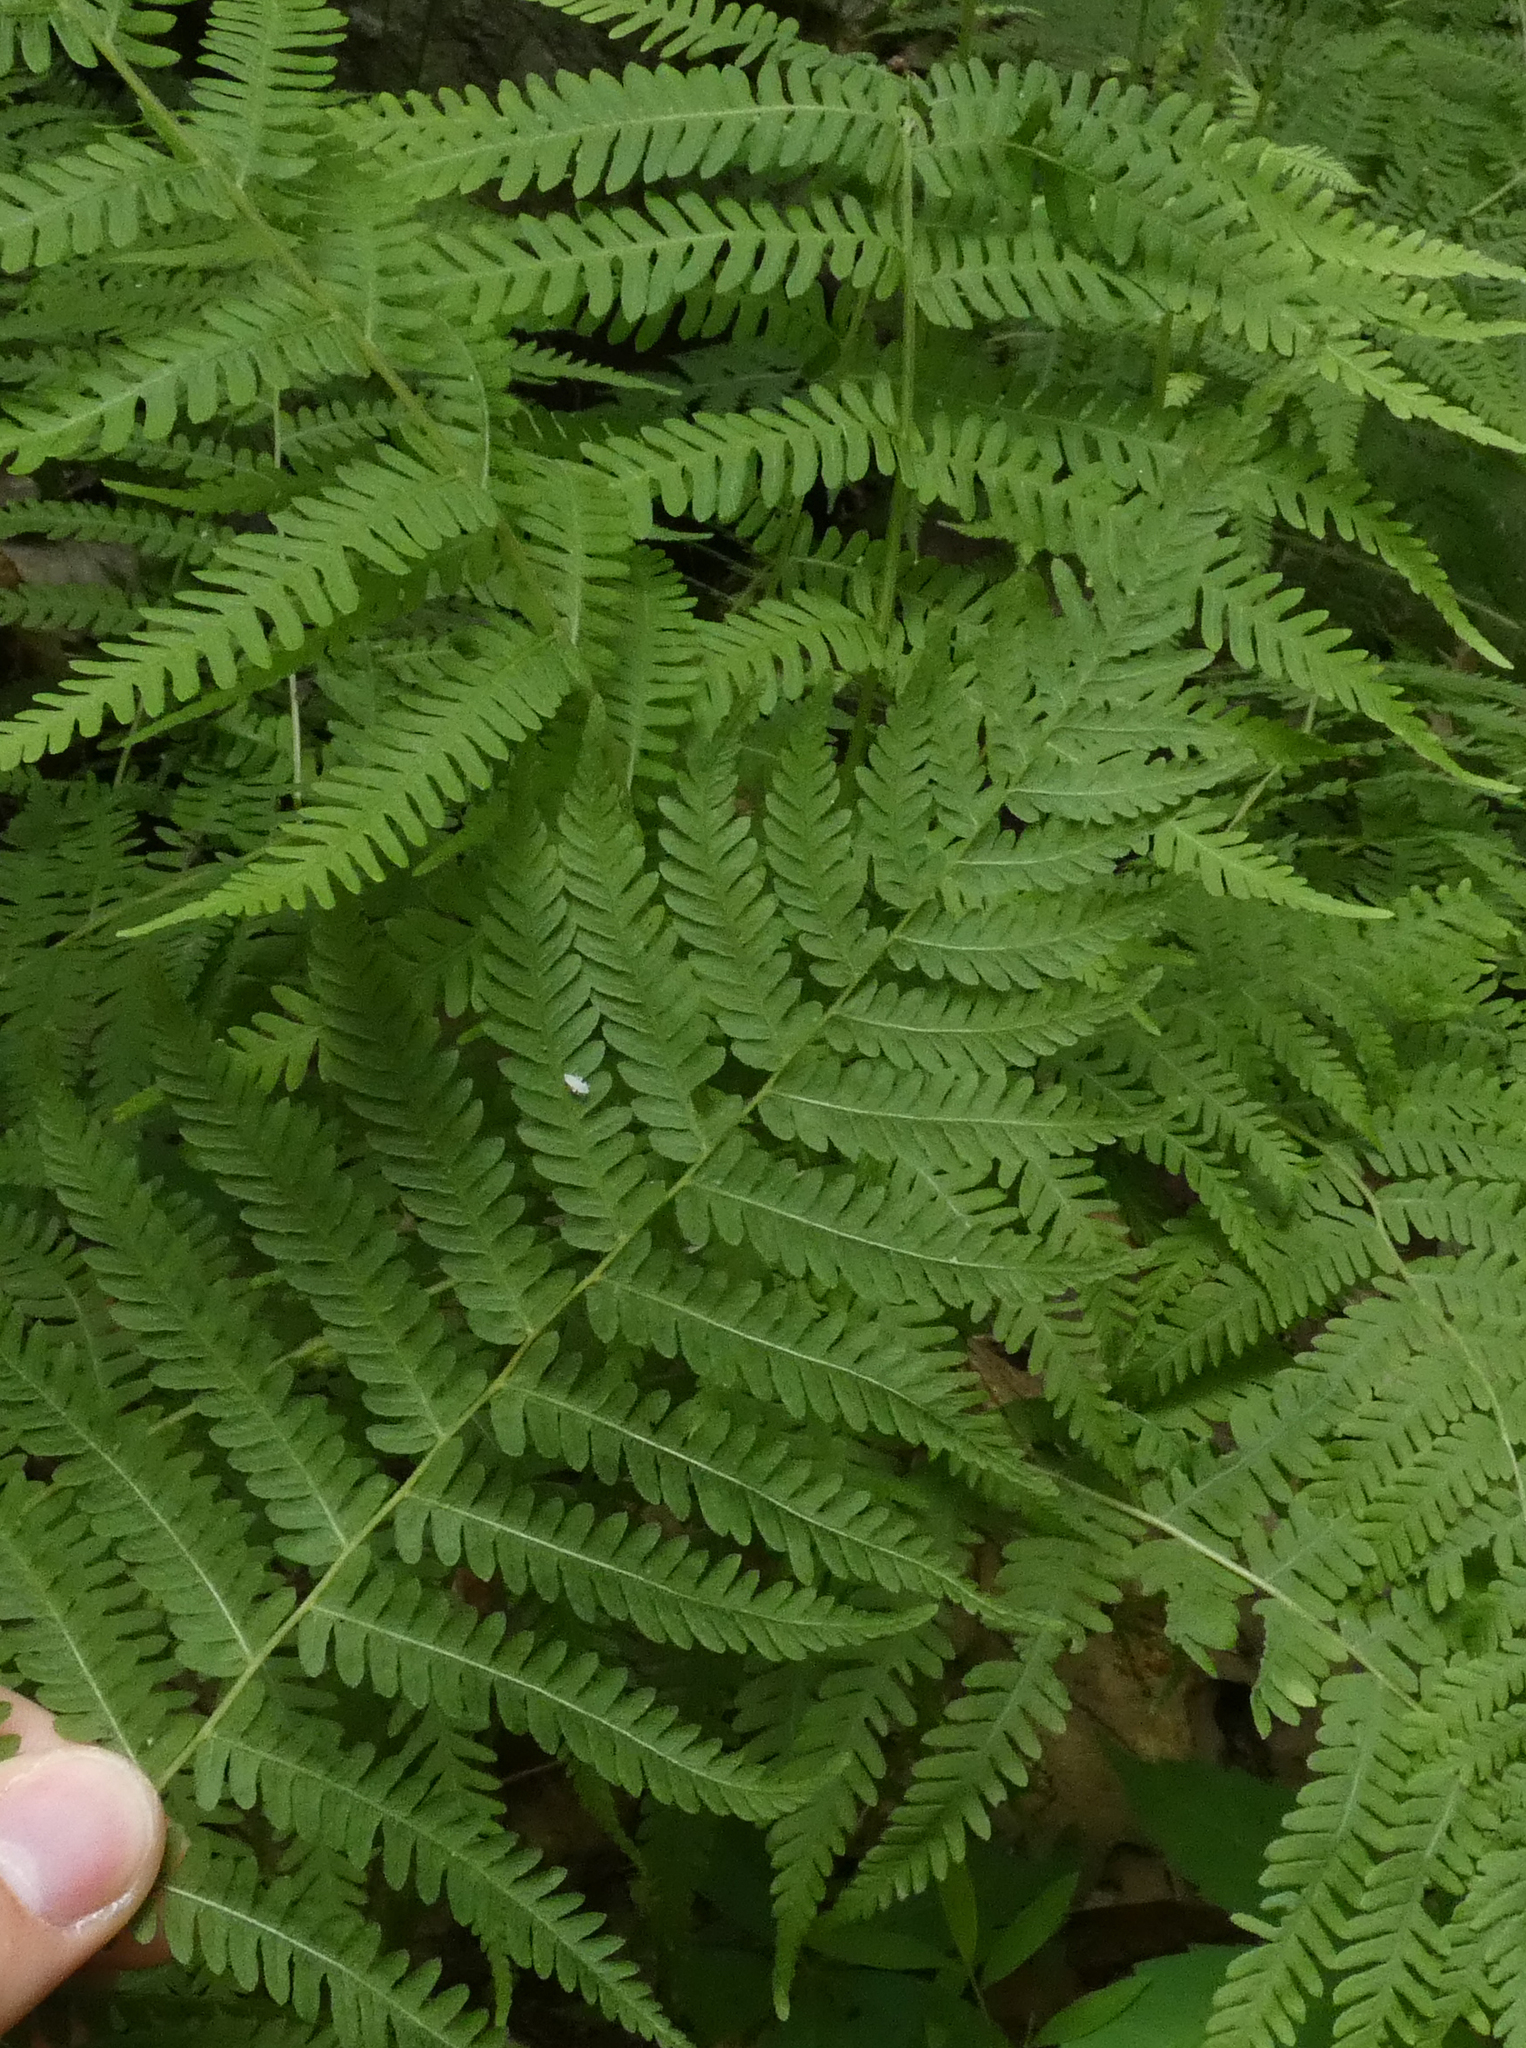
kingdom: Plantae
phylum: Tracheophyta
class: Polypodiopsida
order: Polypodiales
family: Thelypteridaceae
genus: Amauropelta
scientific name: Amauropelta noveboracensis
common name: New york fern
